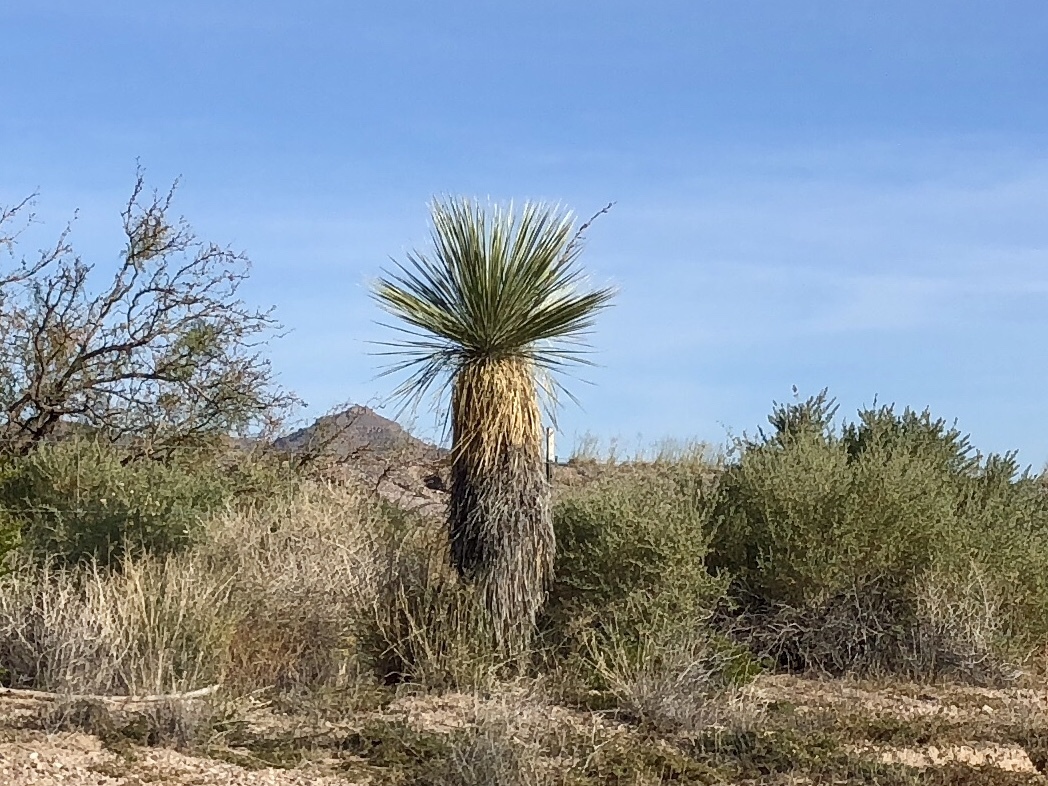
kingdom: Plantae
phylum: Tracheophyta
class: Liliopsida
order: Asparagales
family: Asparagaceae
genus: Yucca
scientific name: Yucca elata
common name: Palmella
